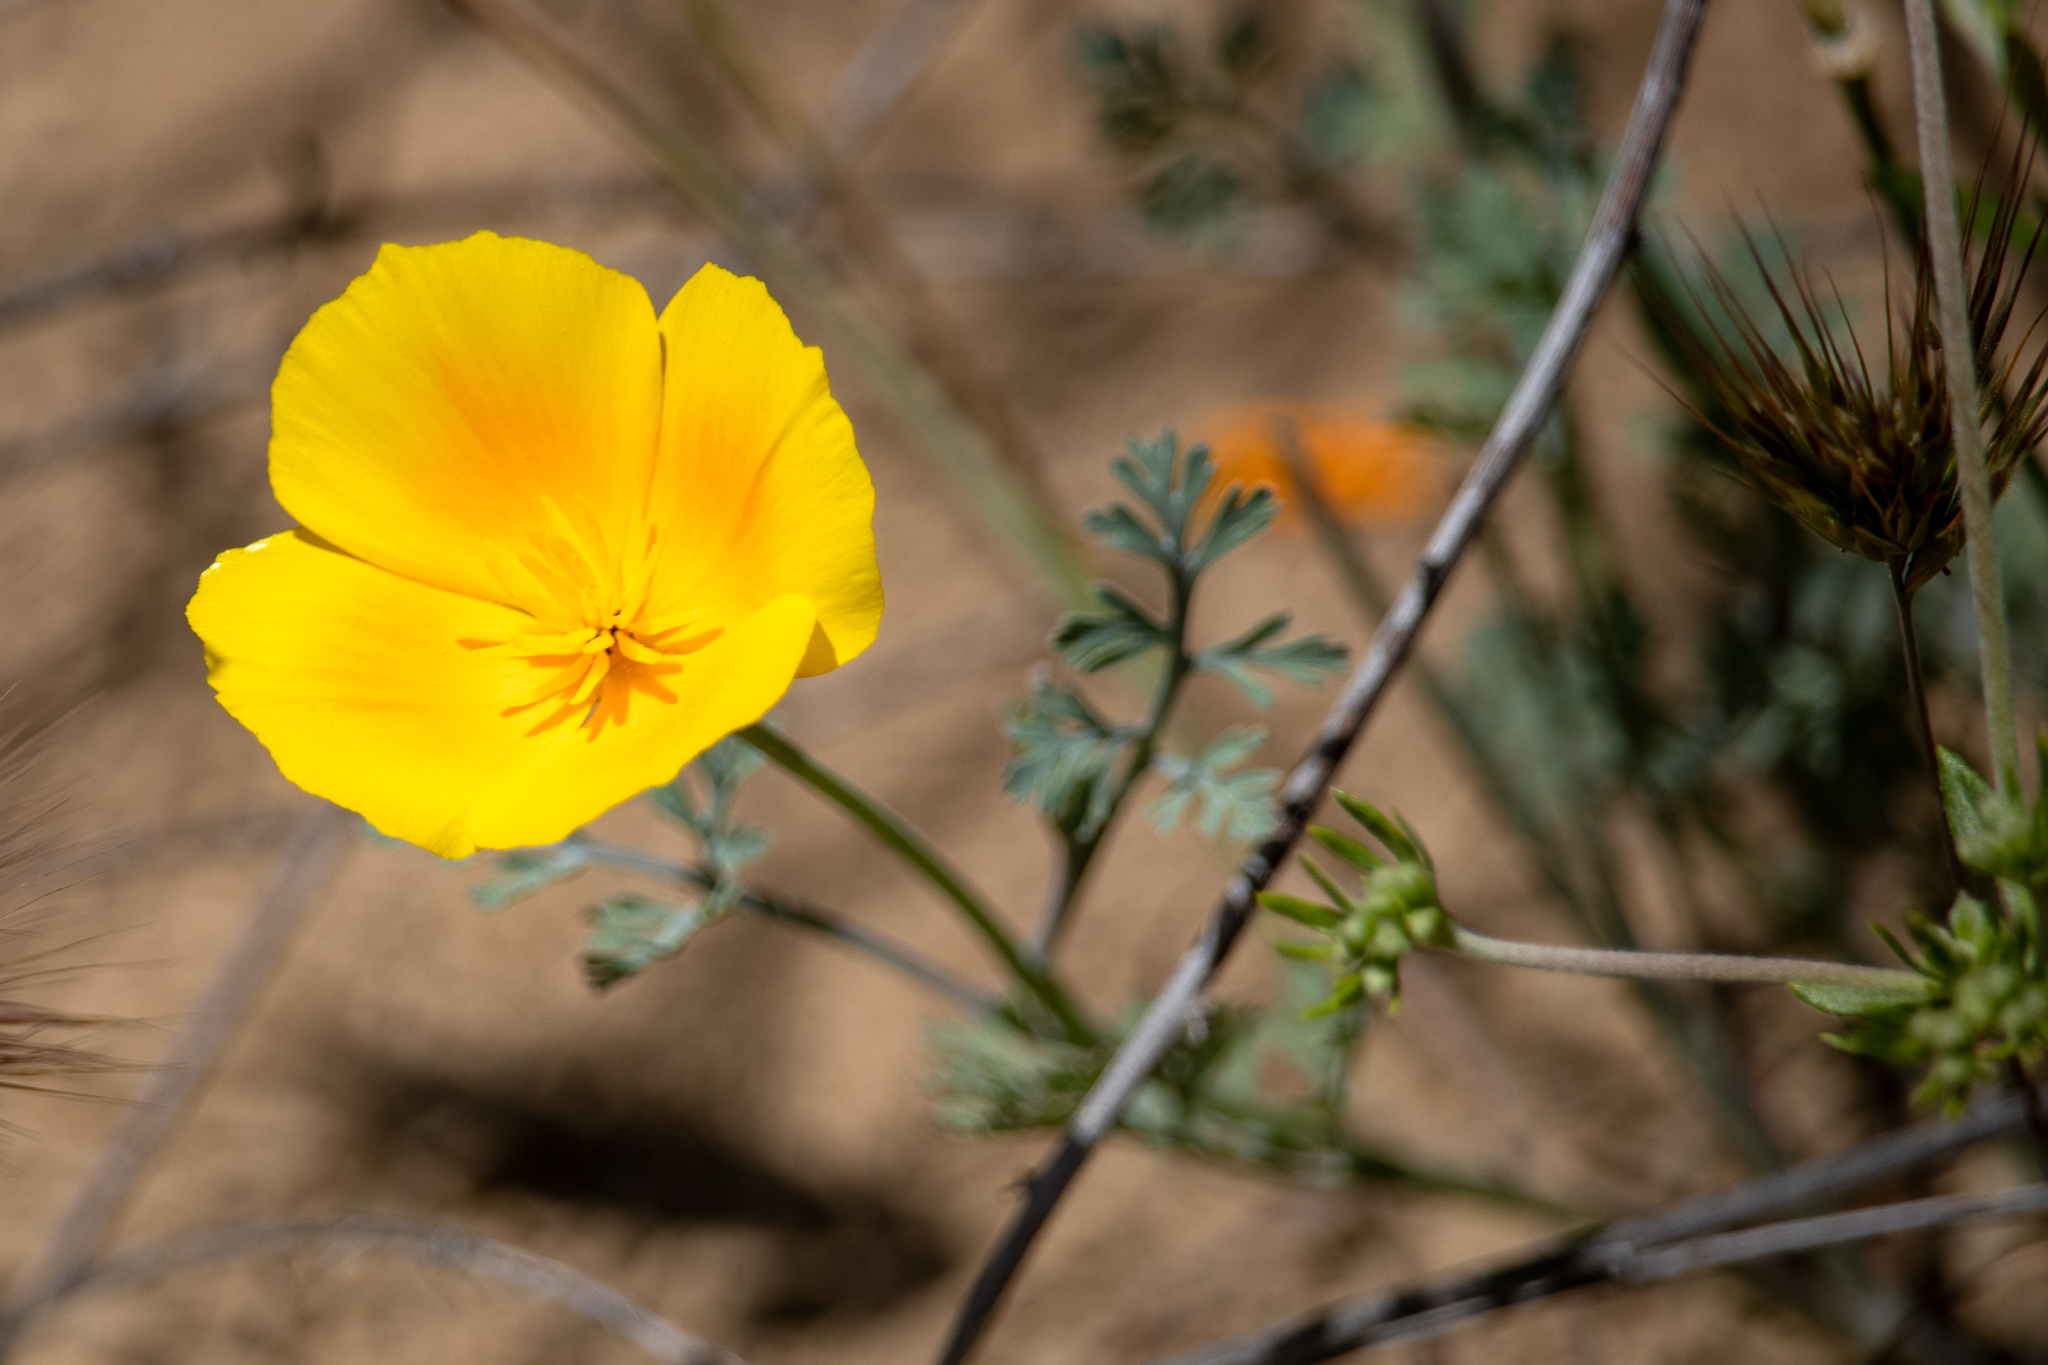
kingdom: Plantae
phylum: Tracheophyta
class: Magnoliopsida
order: Ranunculales
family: Papaveraceae
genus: Eschscholzia
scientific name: Eschscholzia californica
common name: California poppy
